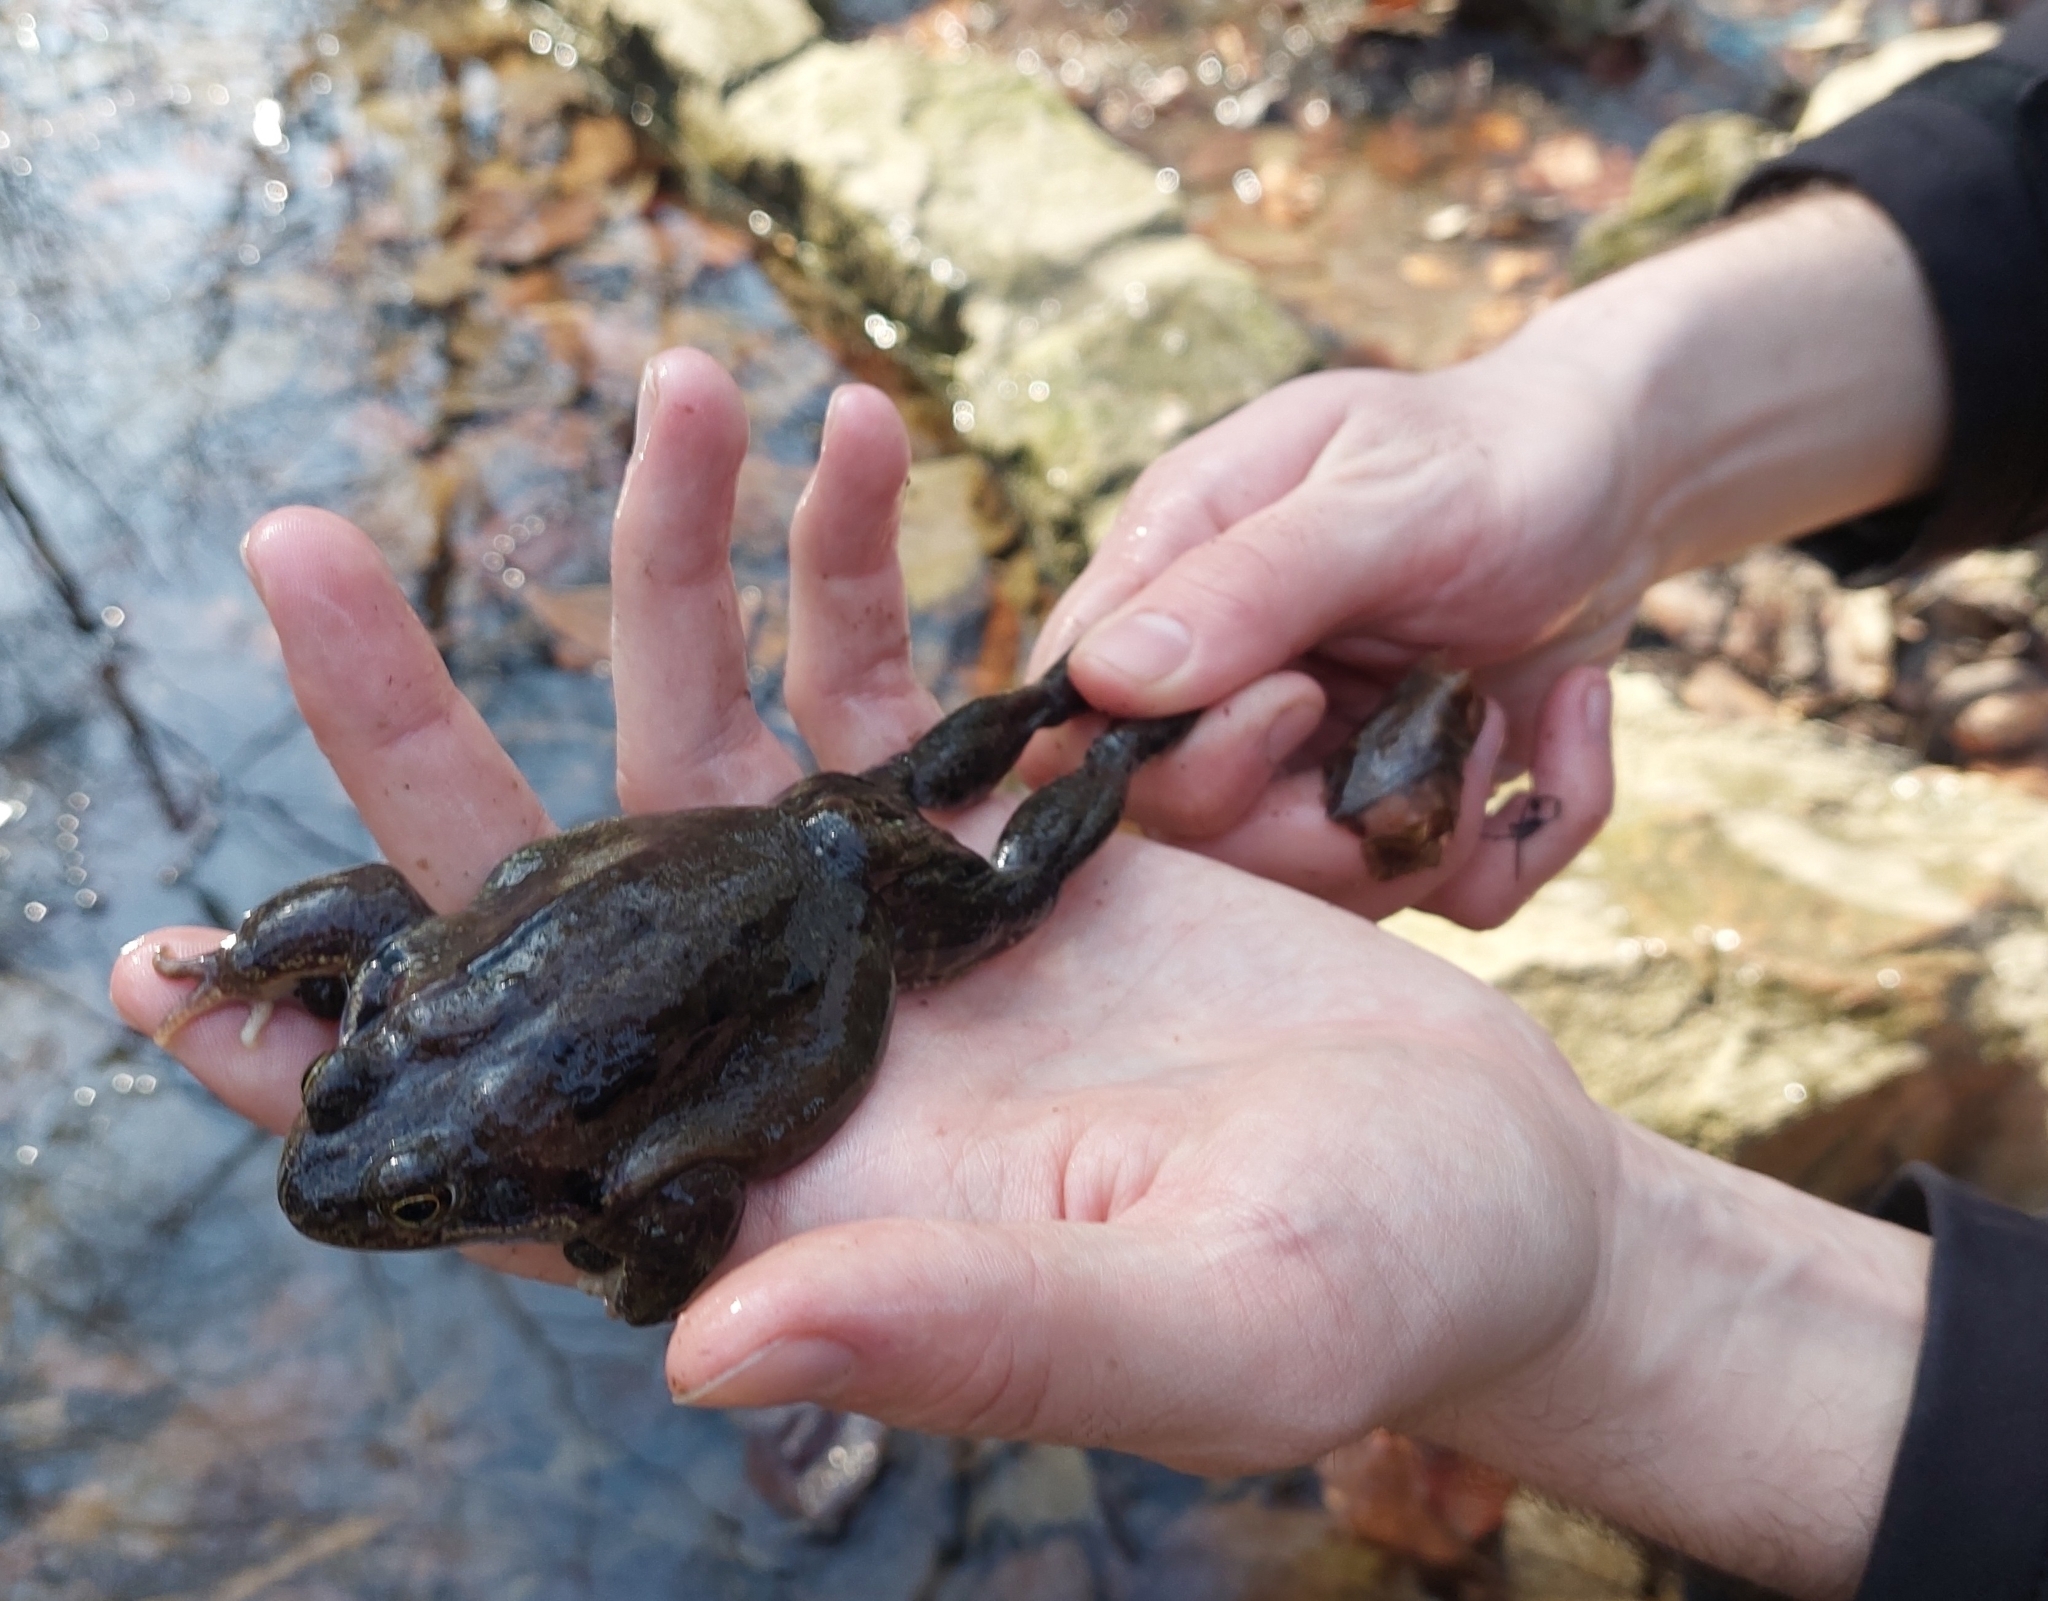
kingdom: Animalia
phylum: Chordata
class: Amphibia
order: Anura
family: Ranidae
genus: Rana
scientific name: Rana temporaria
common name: Common frog
